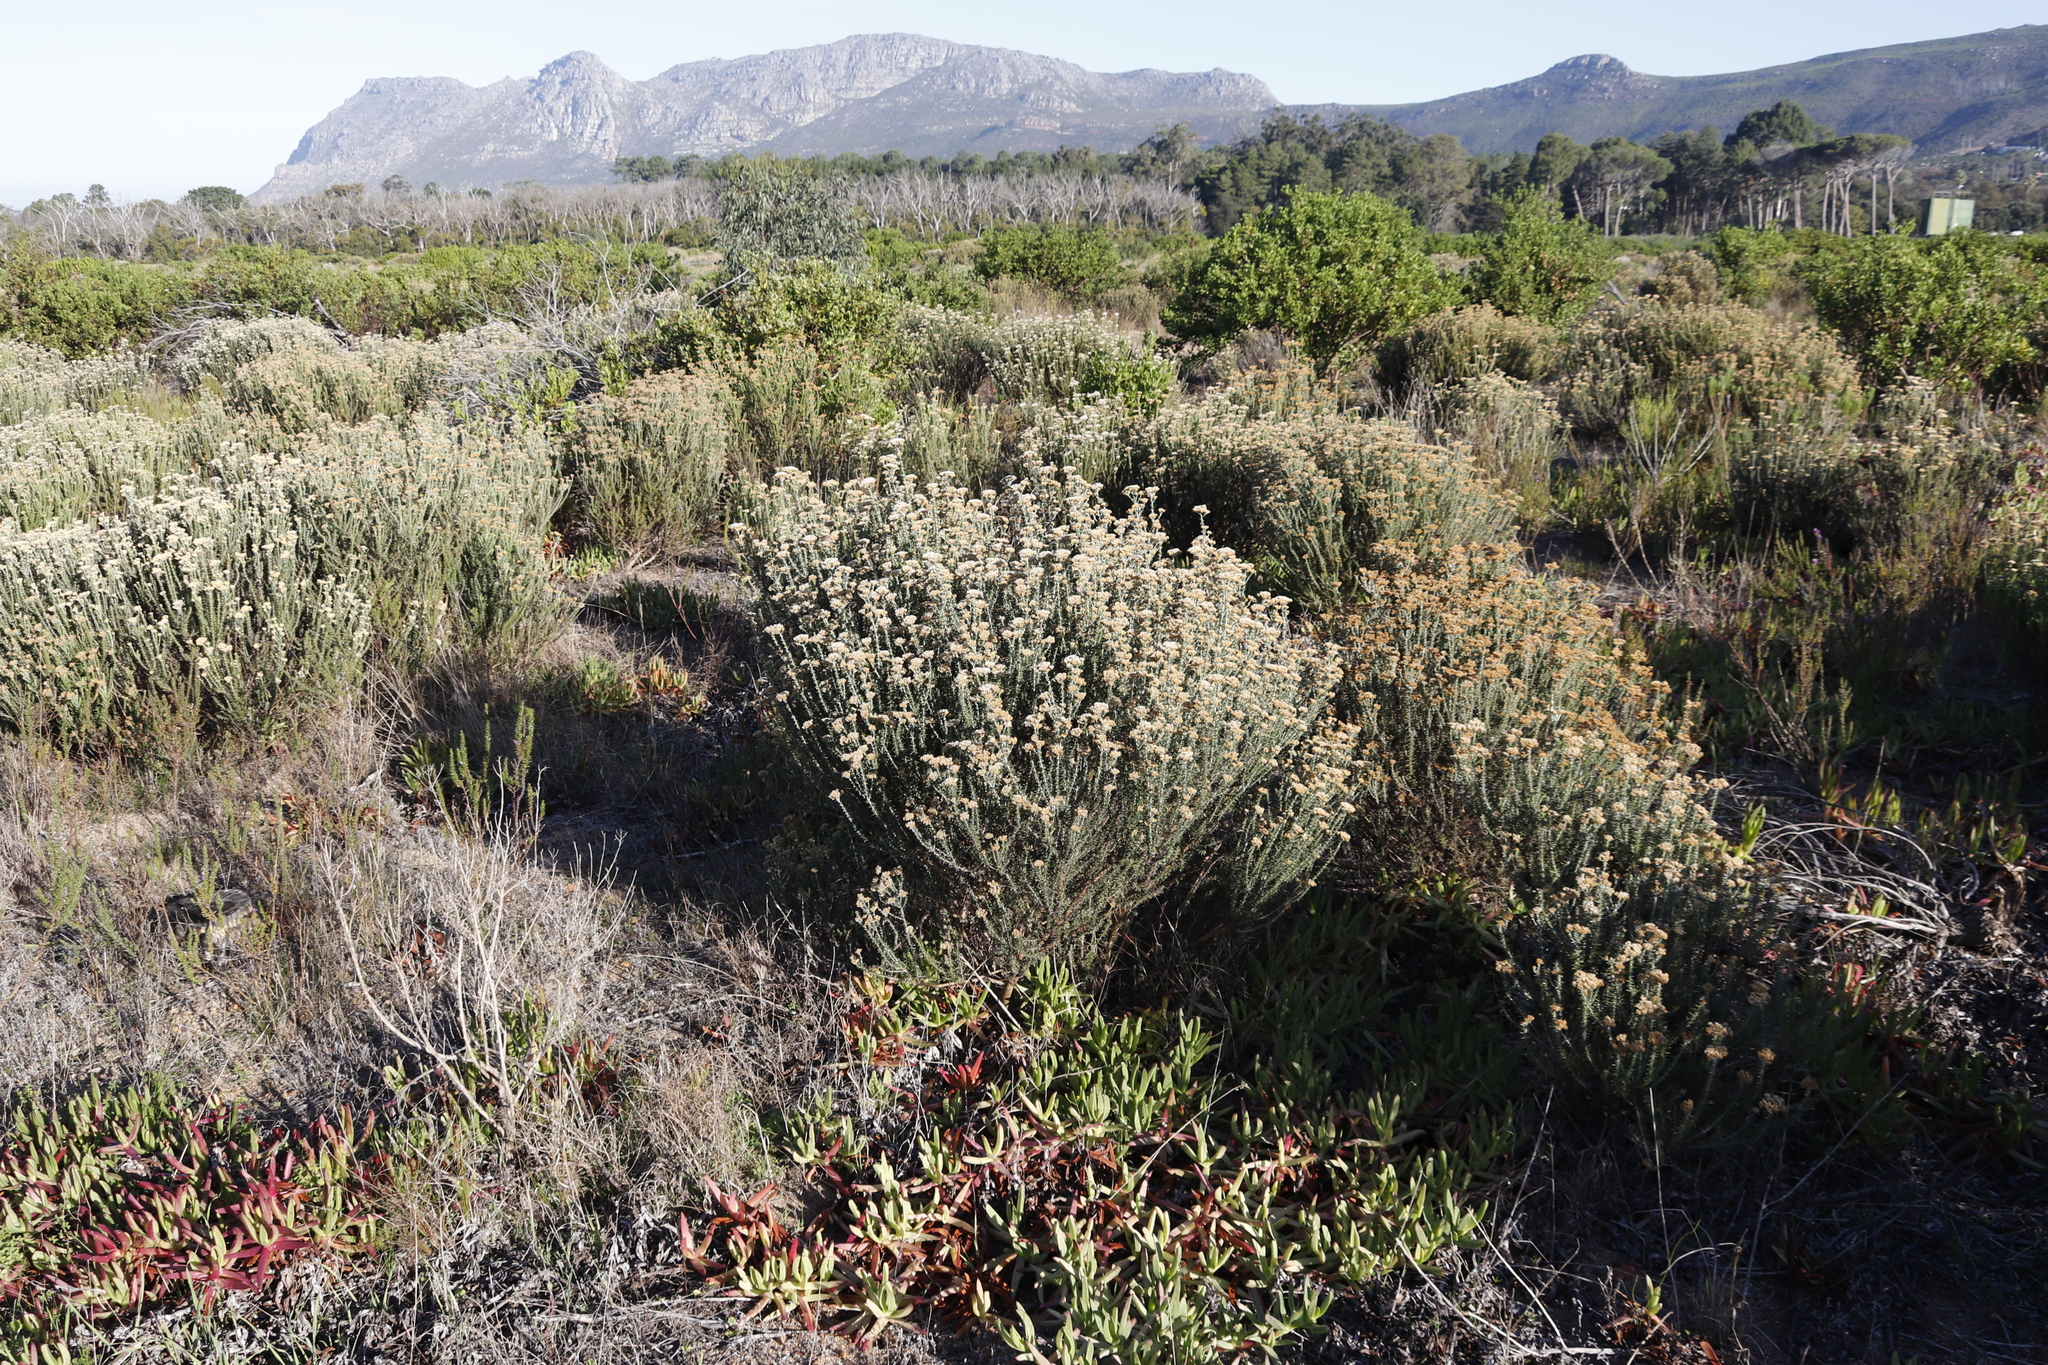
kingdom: Plantae
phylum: Tracheophyta
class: Magnoliopsida
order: Asterales
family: Asteraceae
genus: Metalasia
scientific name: Metalasia densa
